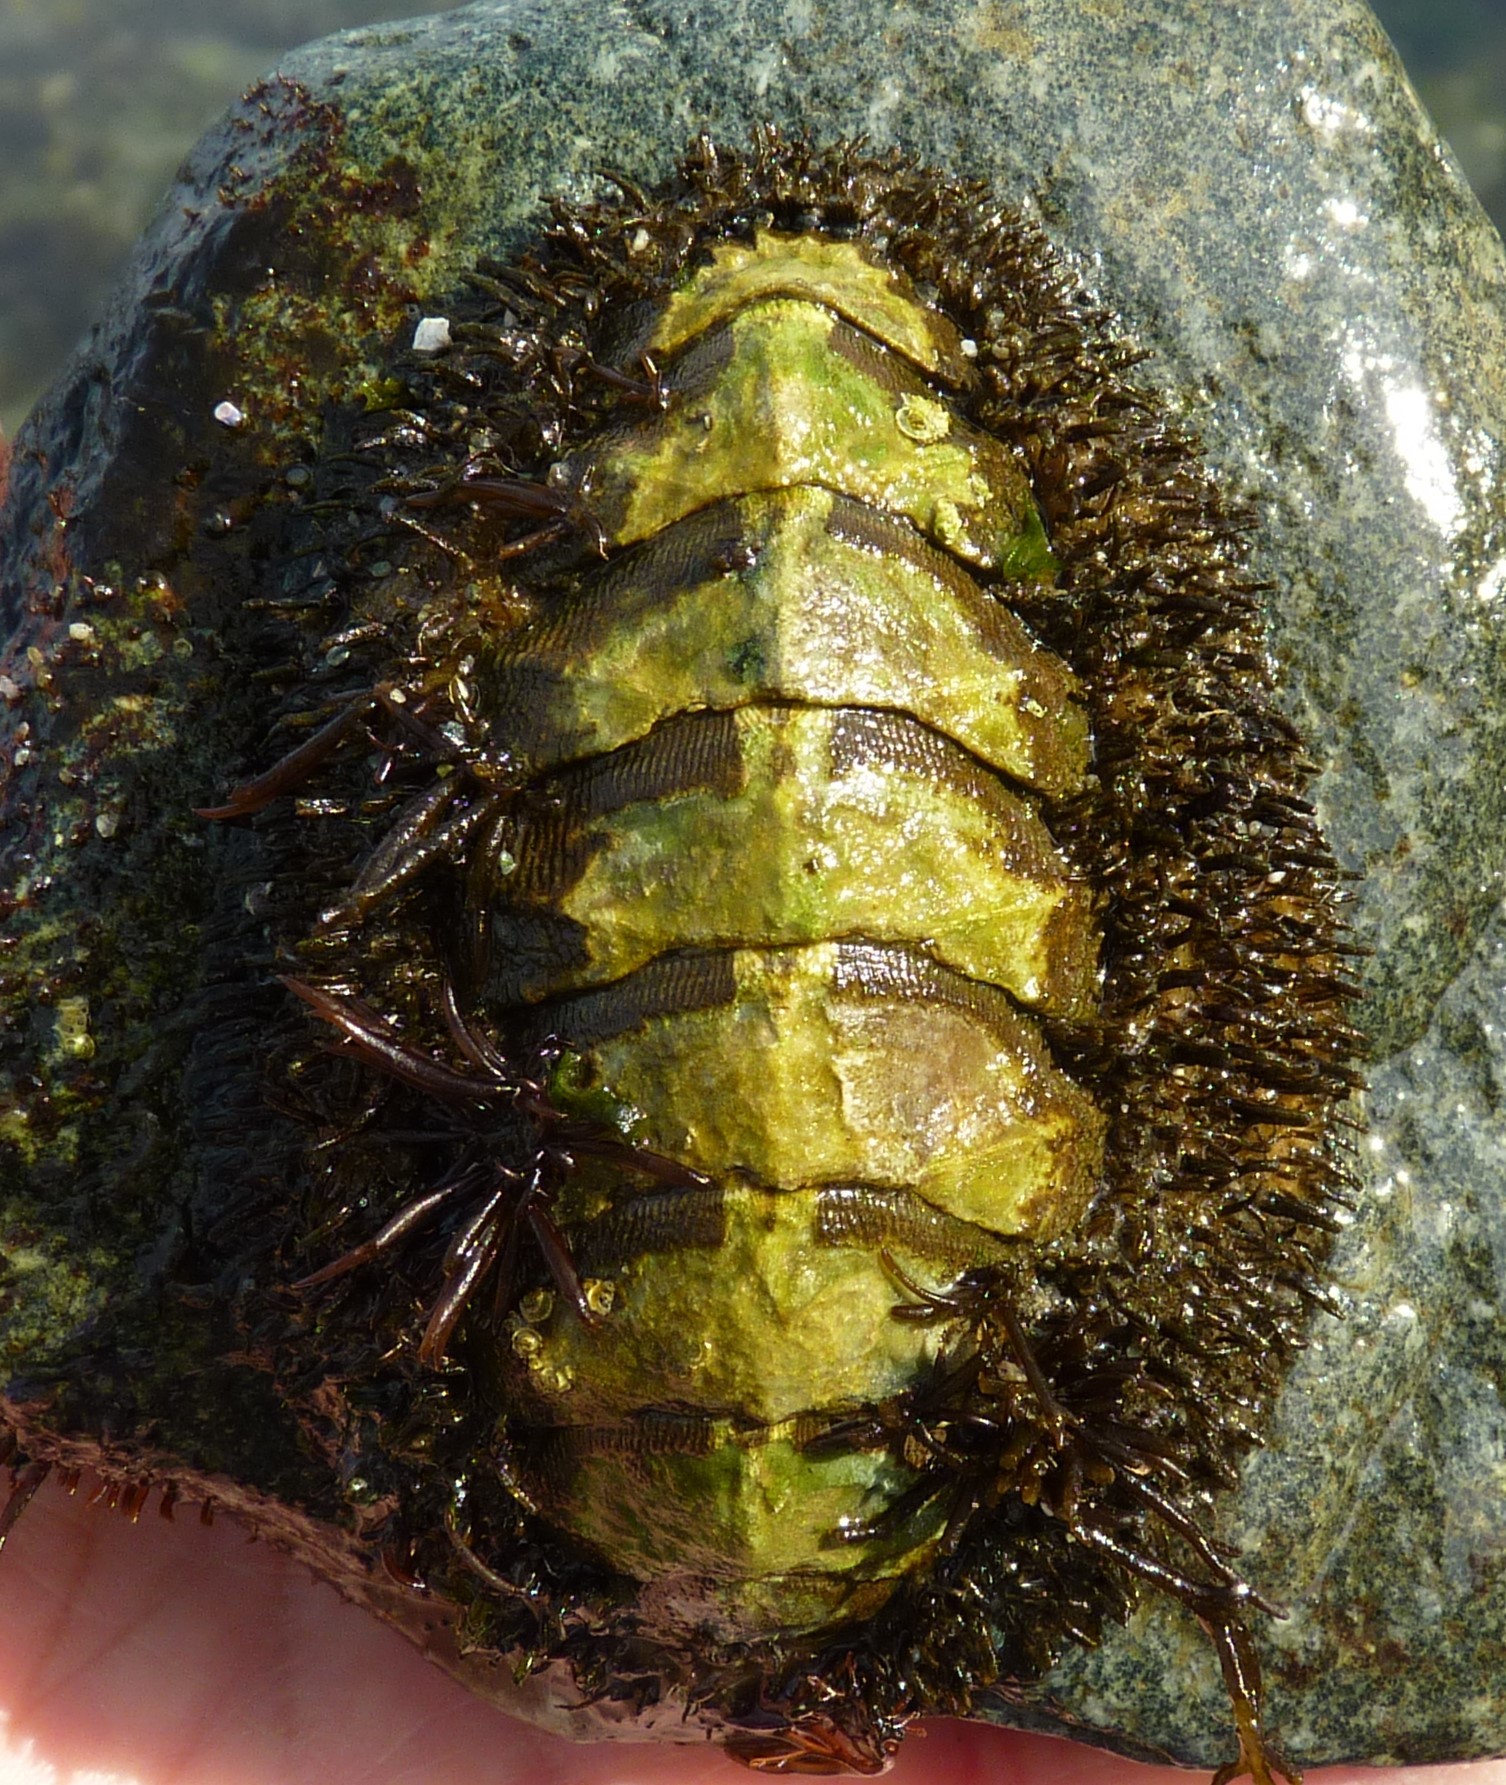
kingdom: Animalia
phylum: Mollusca
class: Polyplacophora
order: Chitonida
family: Mopaliidae
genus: Mopalia
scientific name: Mopalia muscosa
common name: Mossy chiton
